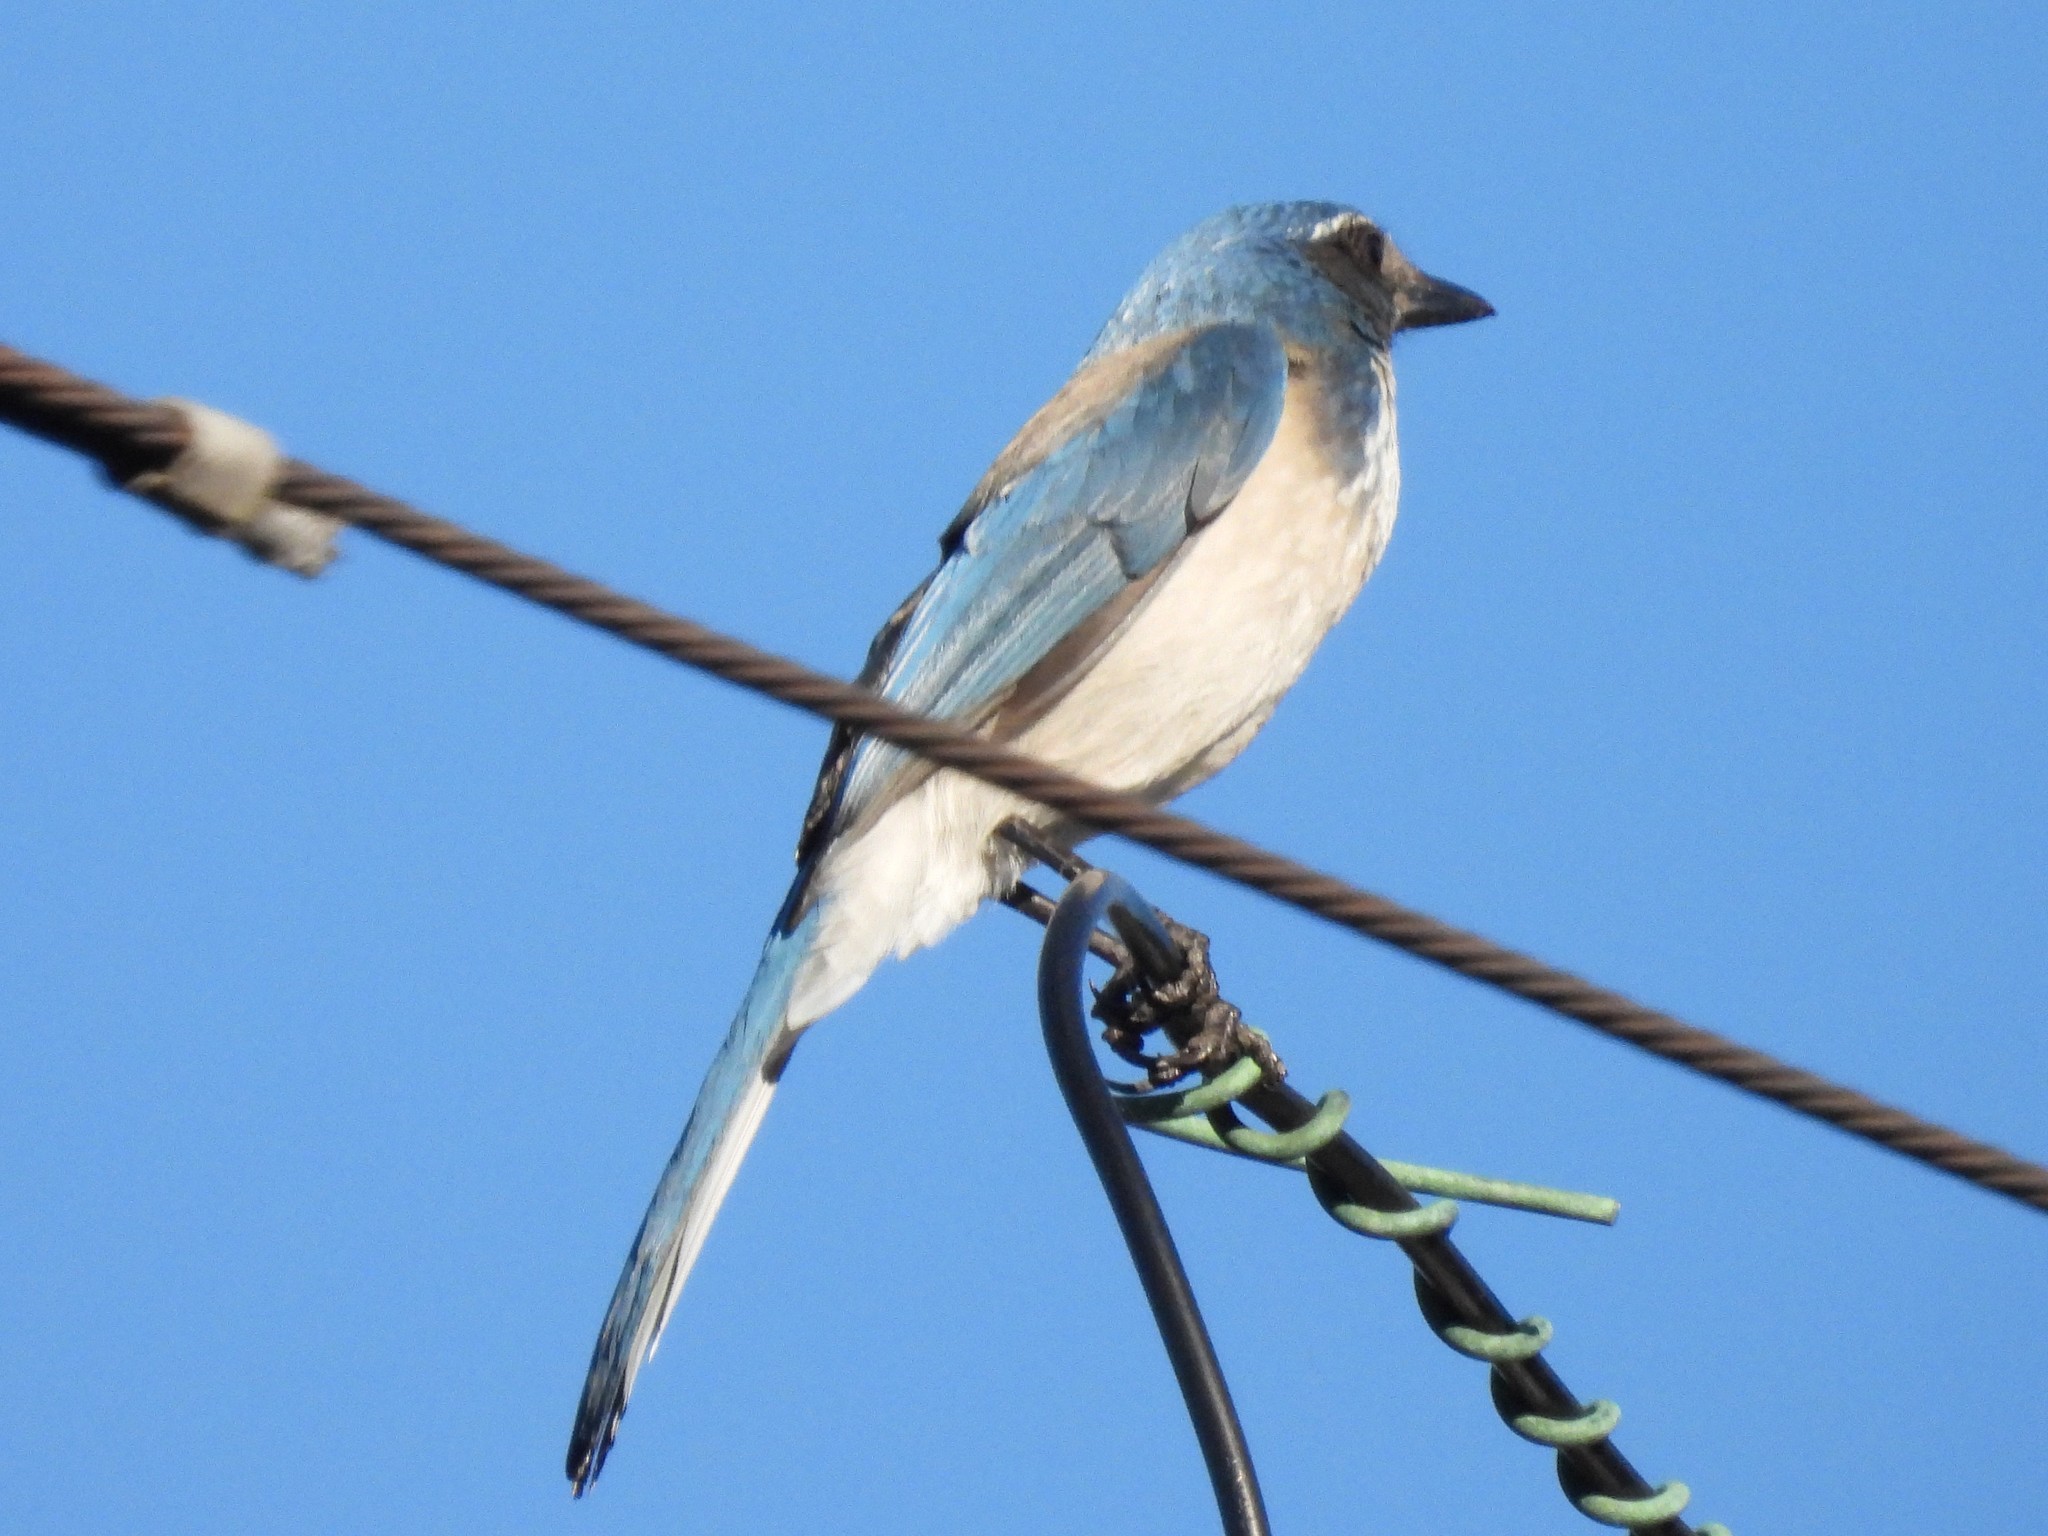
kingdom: Animalia
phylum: Chordata
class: Aves
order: Passeriformes
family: Corvidae
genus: Aphelocoma
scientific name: Aphelocoma californica
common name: California scrub-jay
